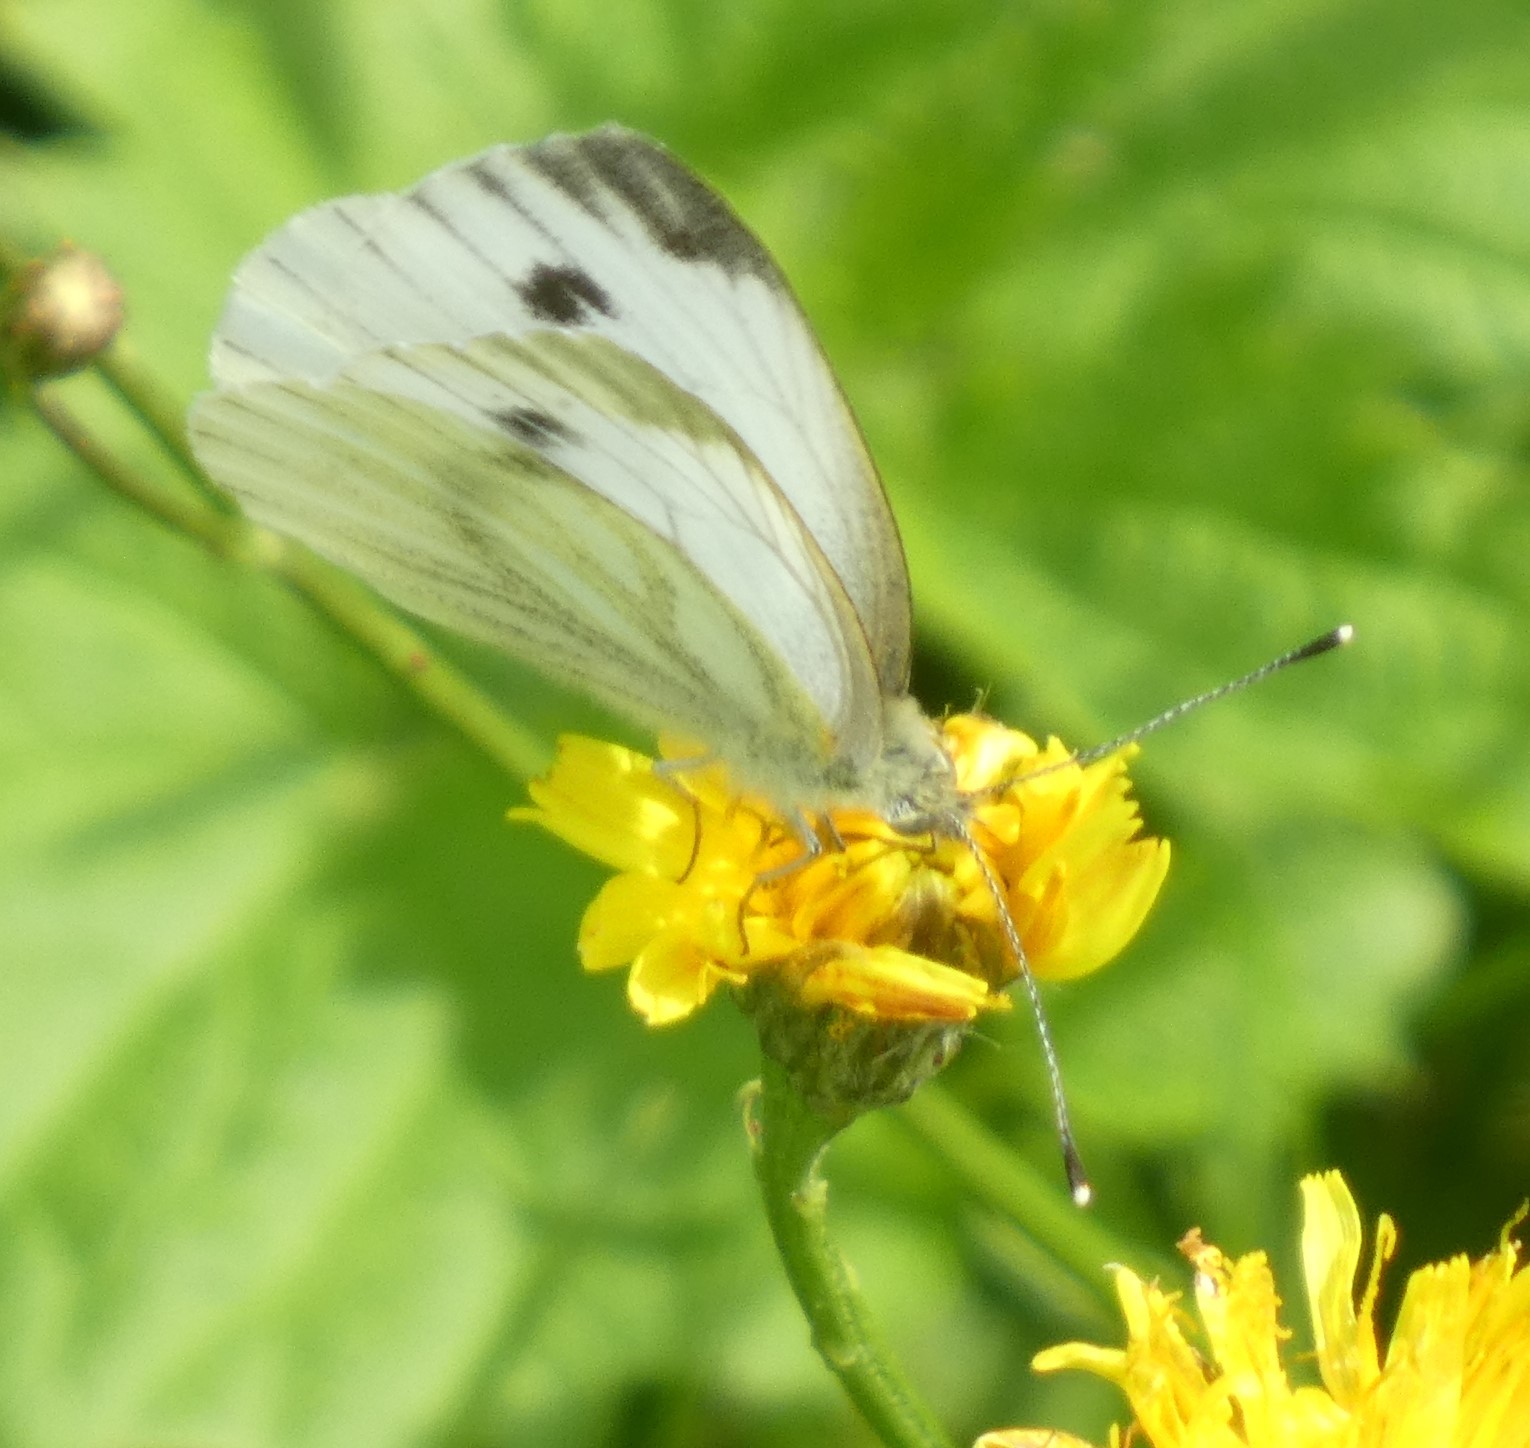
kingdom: Animalia
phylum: Arthropoda
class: Insecta
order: Lepidoptera
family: Pieridae
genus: Pieris
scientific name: Pieris napi
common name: Green-veined white
